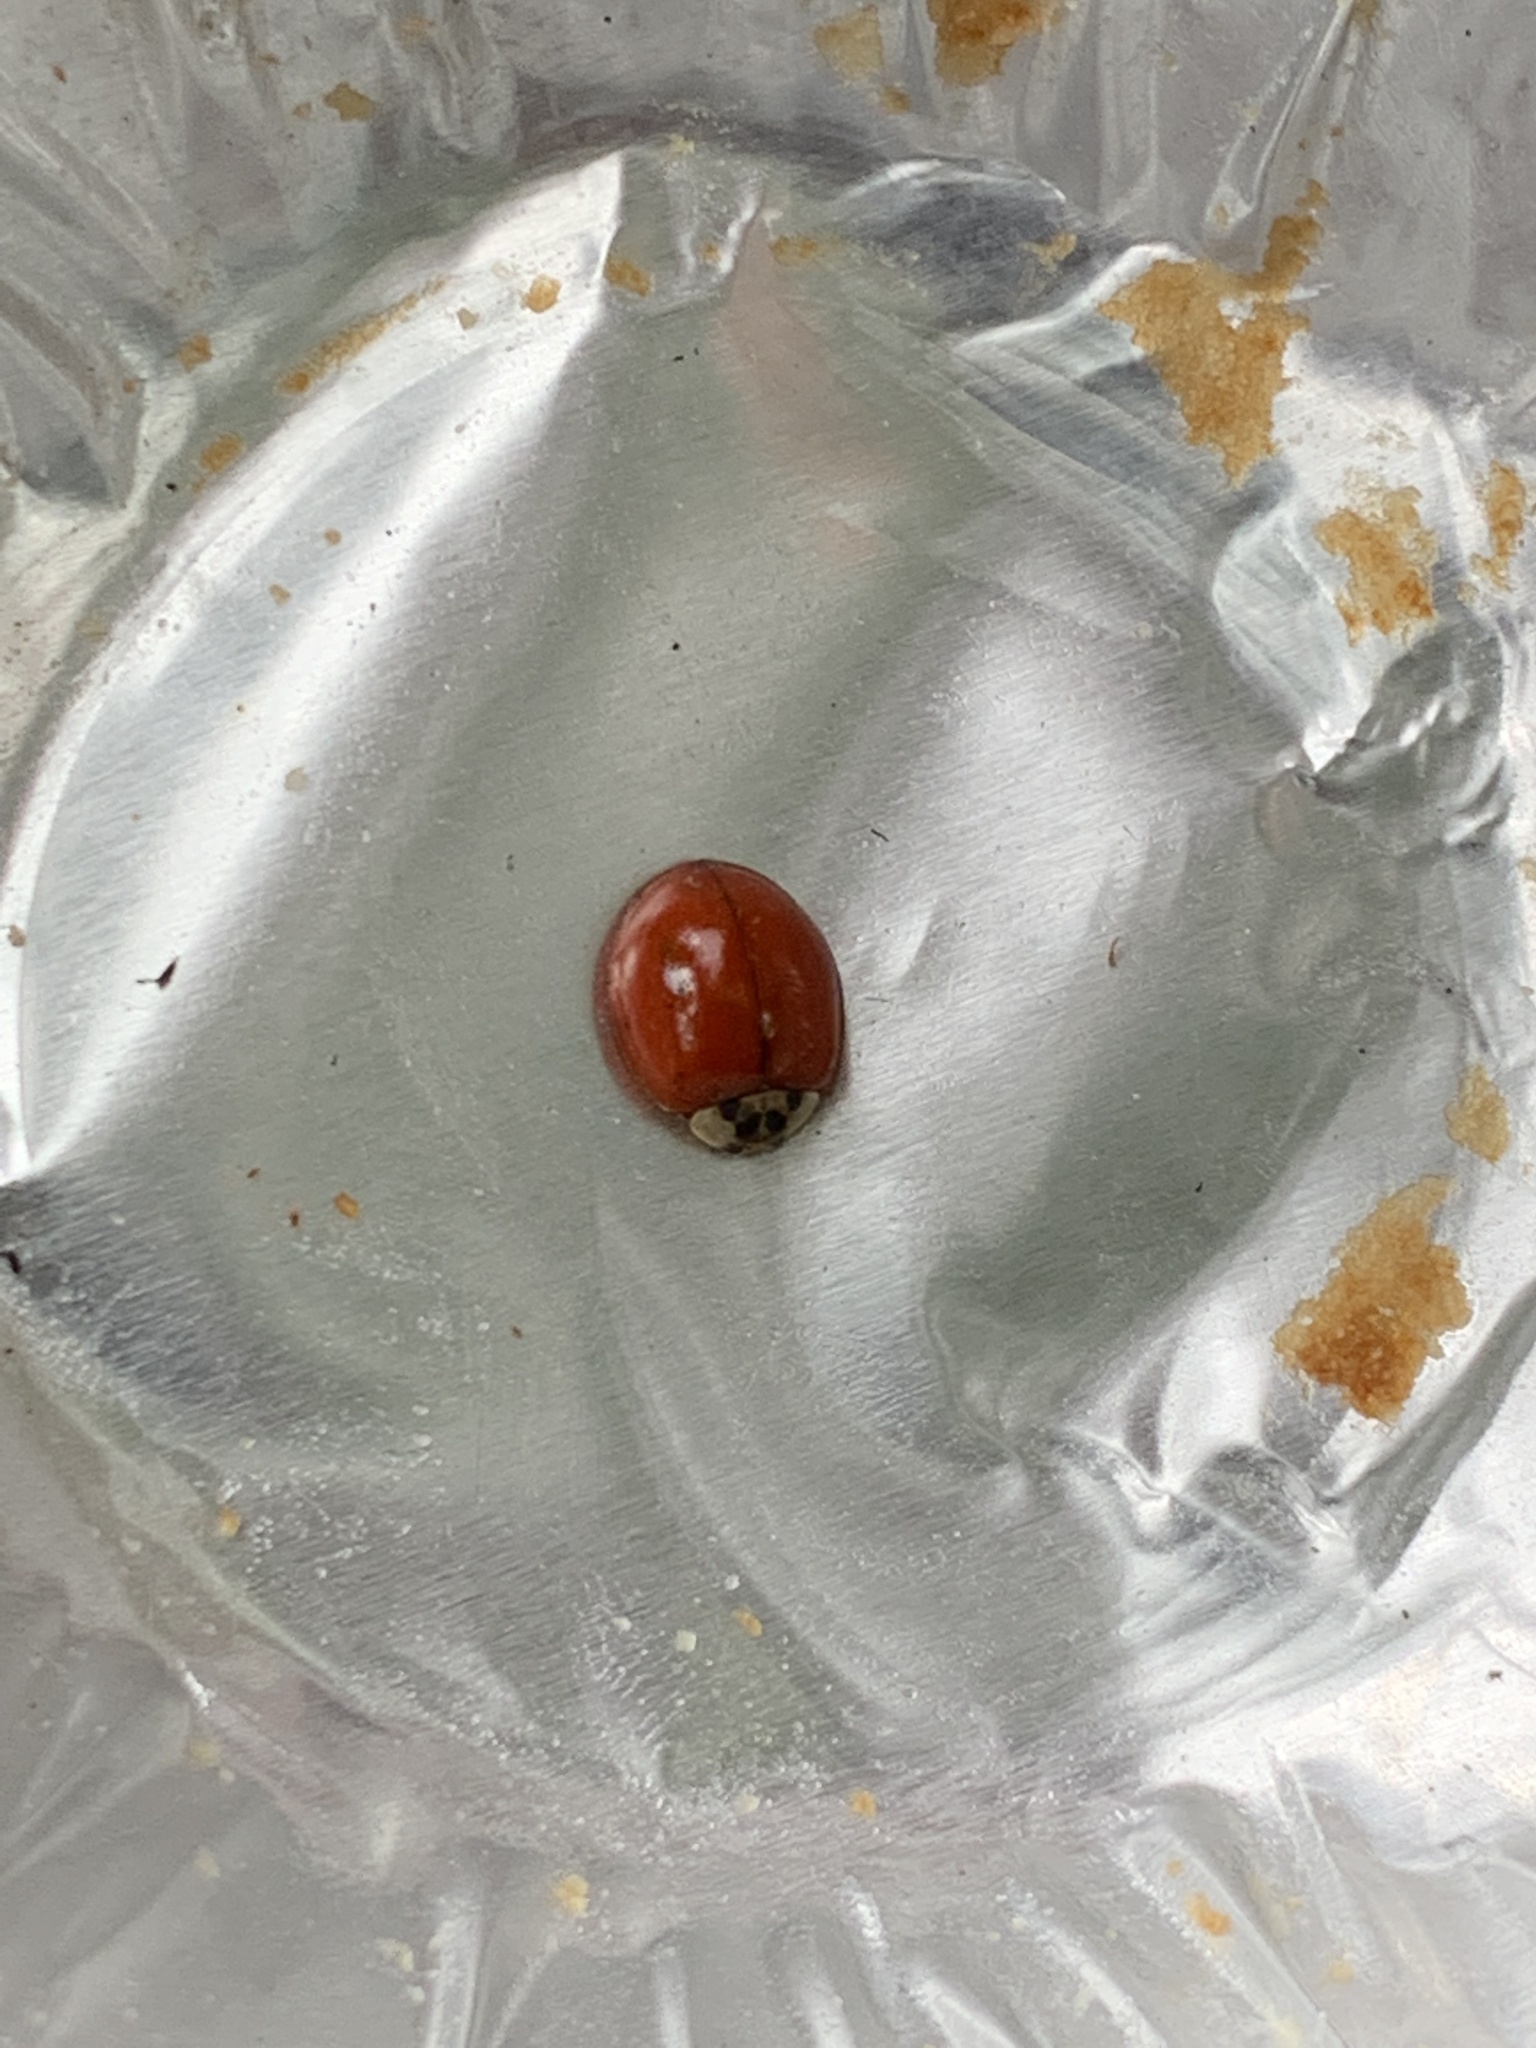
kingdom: Animalia
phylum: Arthropoda
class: Insecta
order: Coleoptera
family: Coccinellidae
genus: Harmonia
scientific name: Harmonia axyridis
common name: Harlequin ladybird
